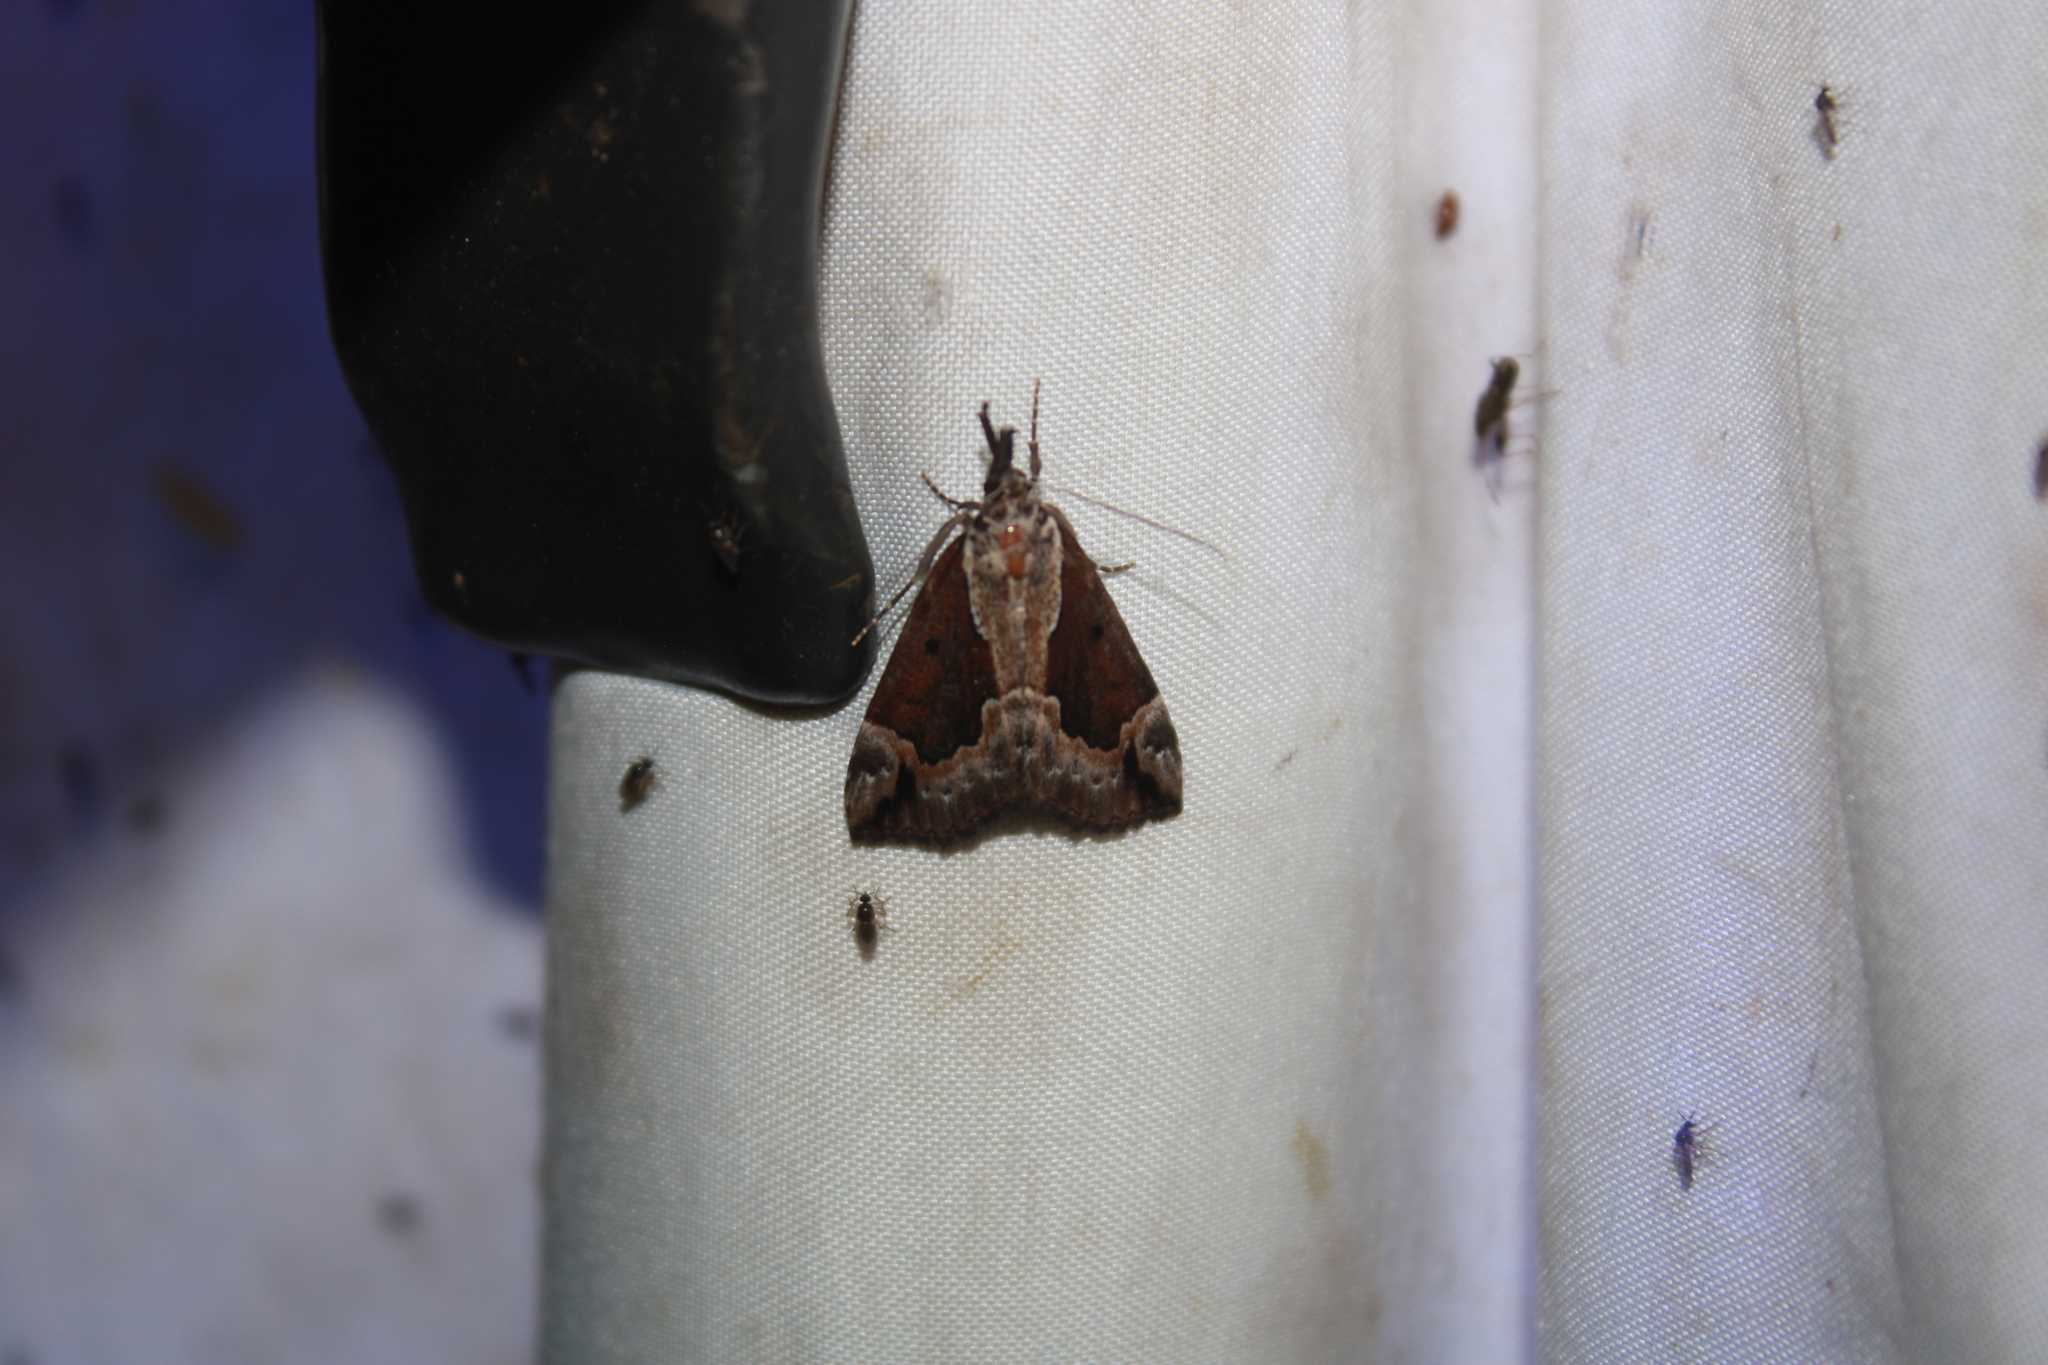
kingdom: Animalia
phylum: Arthropoda
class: Insecta
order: Lepidoptera
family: Erebidae
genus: Hypena
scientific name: Hypena baltimoralis
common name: Baltimore snout
